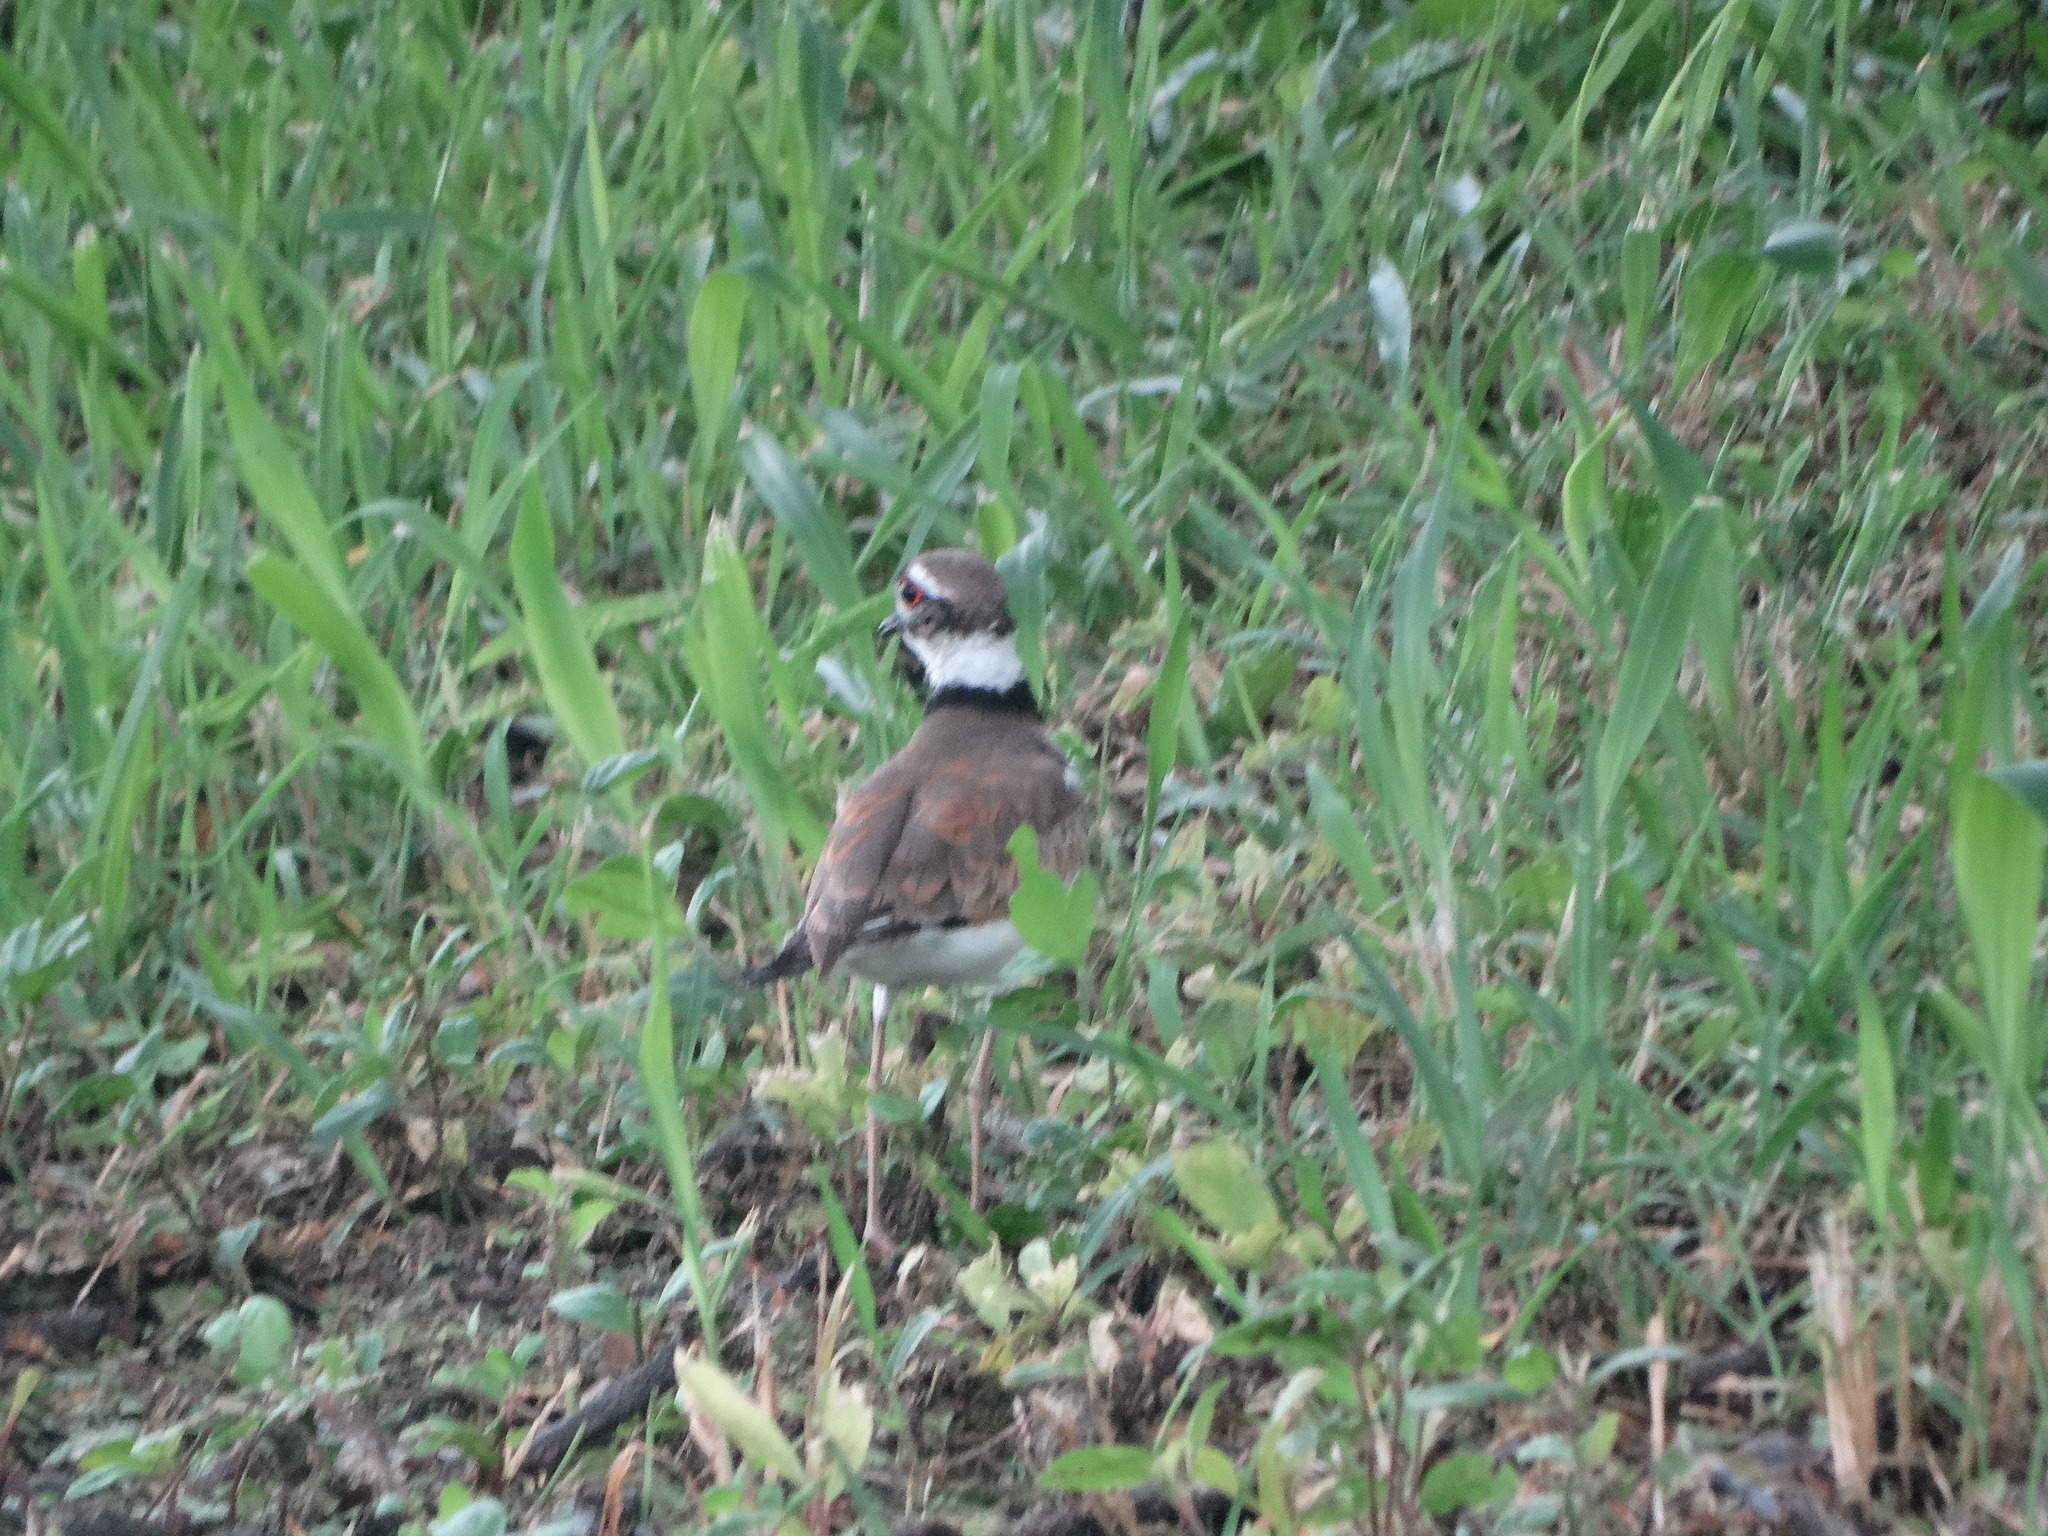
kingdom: Animalia
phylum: Chordata
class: Aves
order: Charadriiformes
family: Charadriidae
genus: Charadrius
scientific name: Charadrius vociferus
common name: Killdeer
